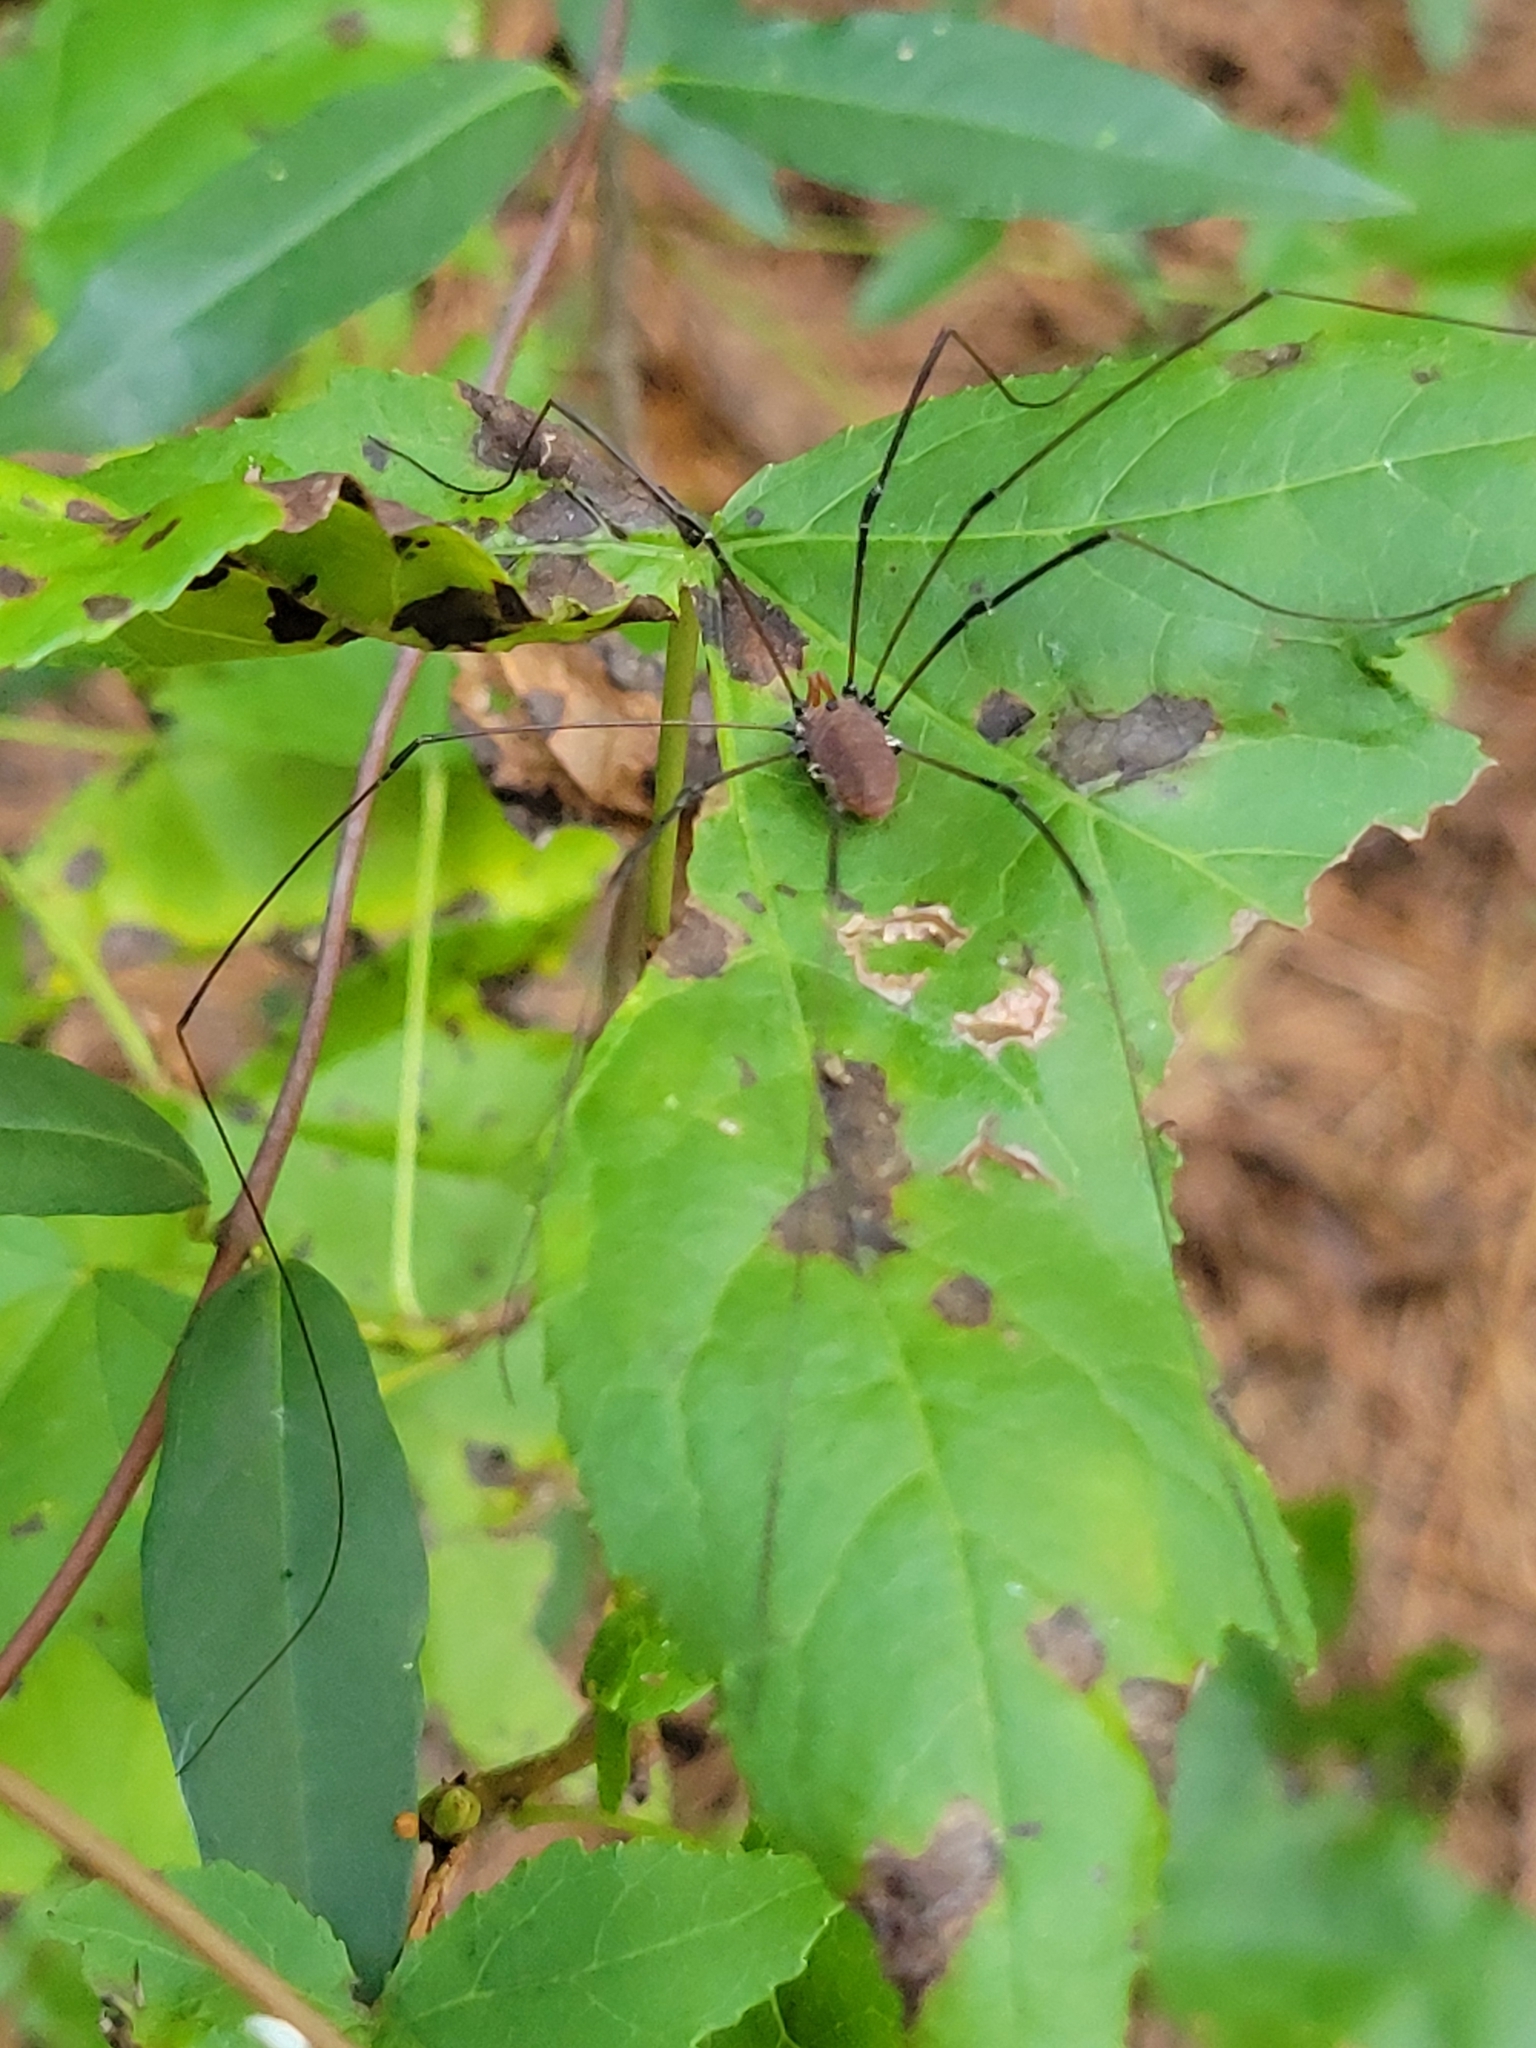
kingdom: Animalia
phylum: Arthropoda
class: Arachnida
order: Opiliones
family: Sclerosomatidae
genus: Leiobunum
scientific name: Leiobunum vittatum
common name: Eastern harvestman
